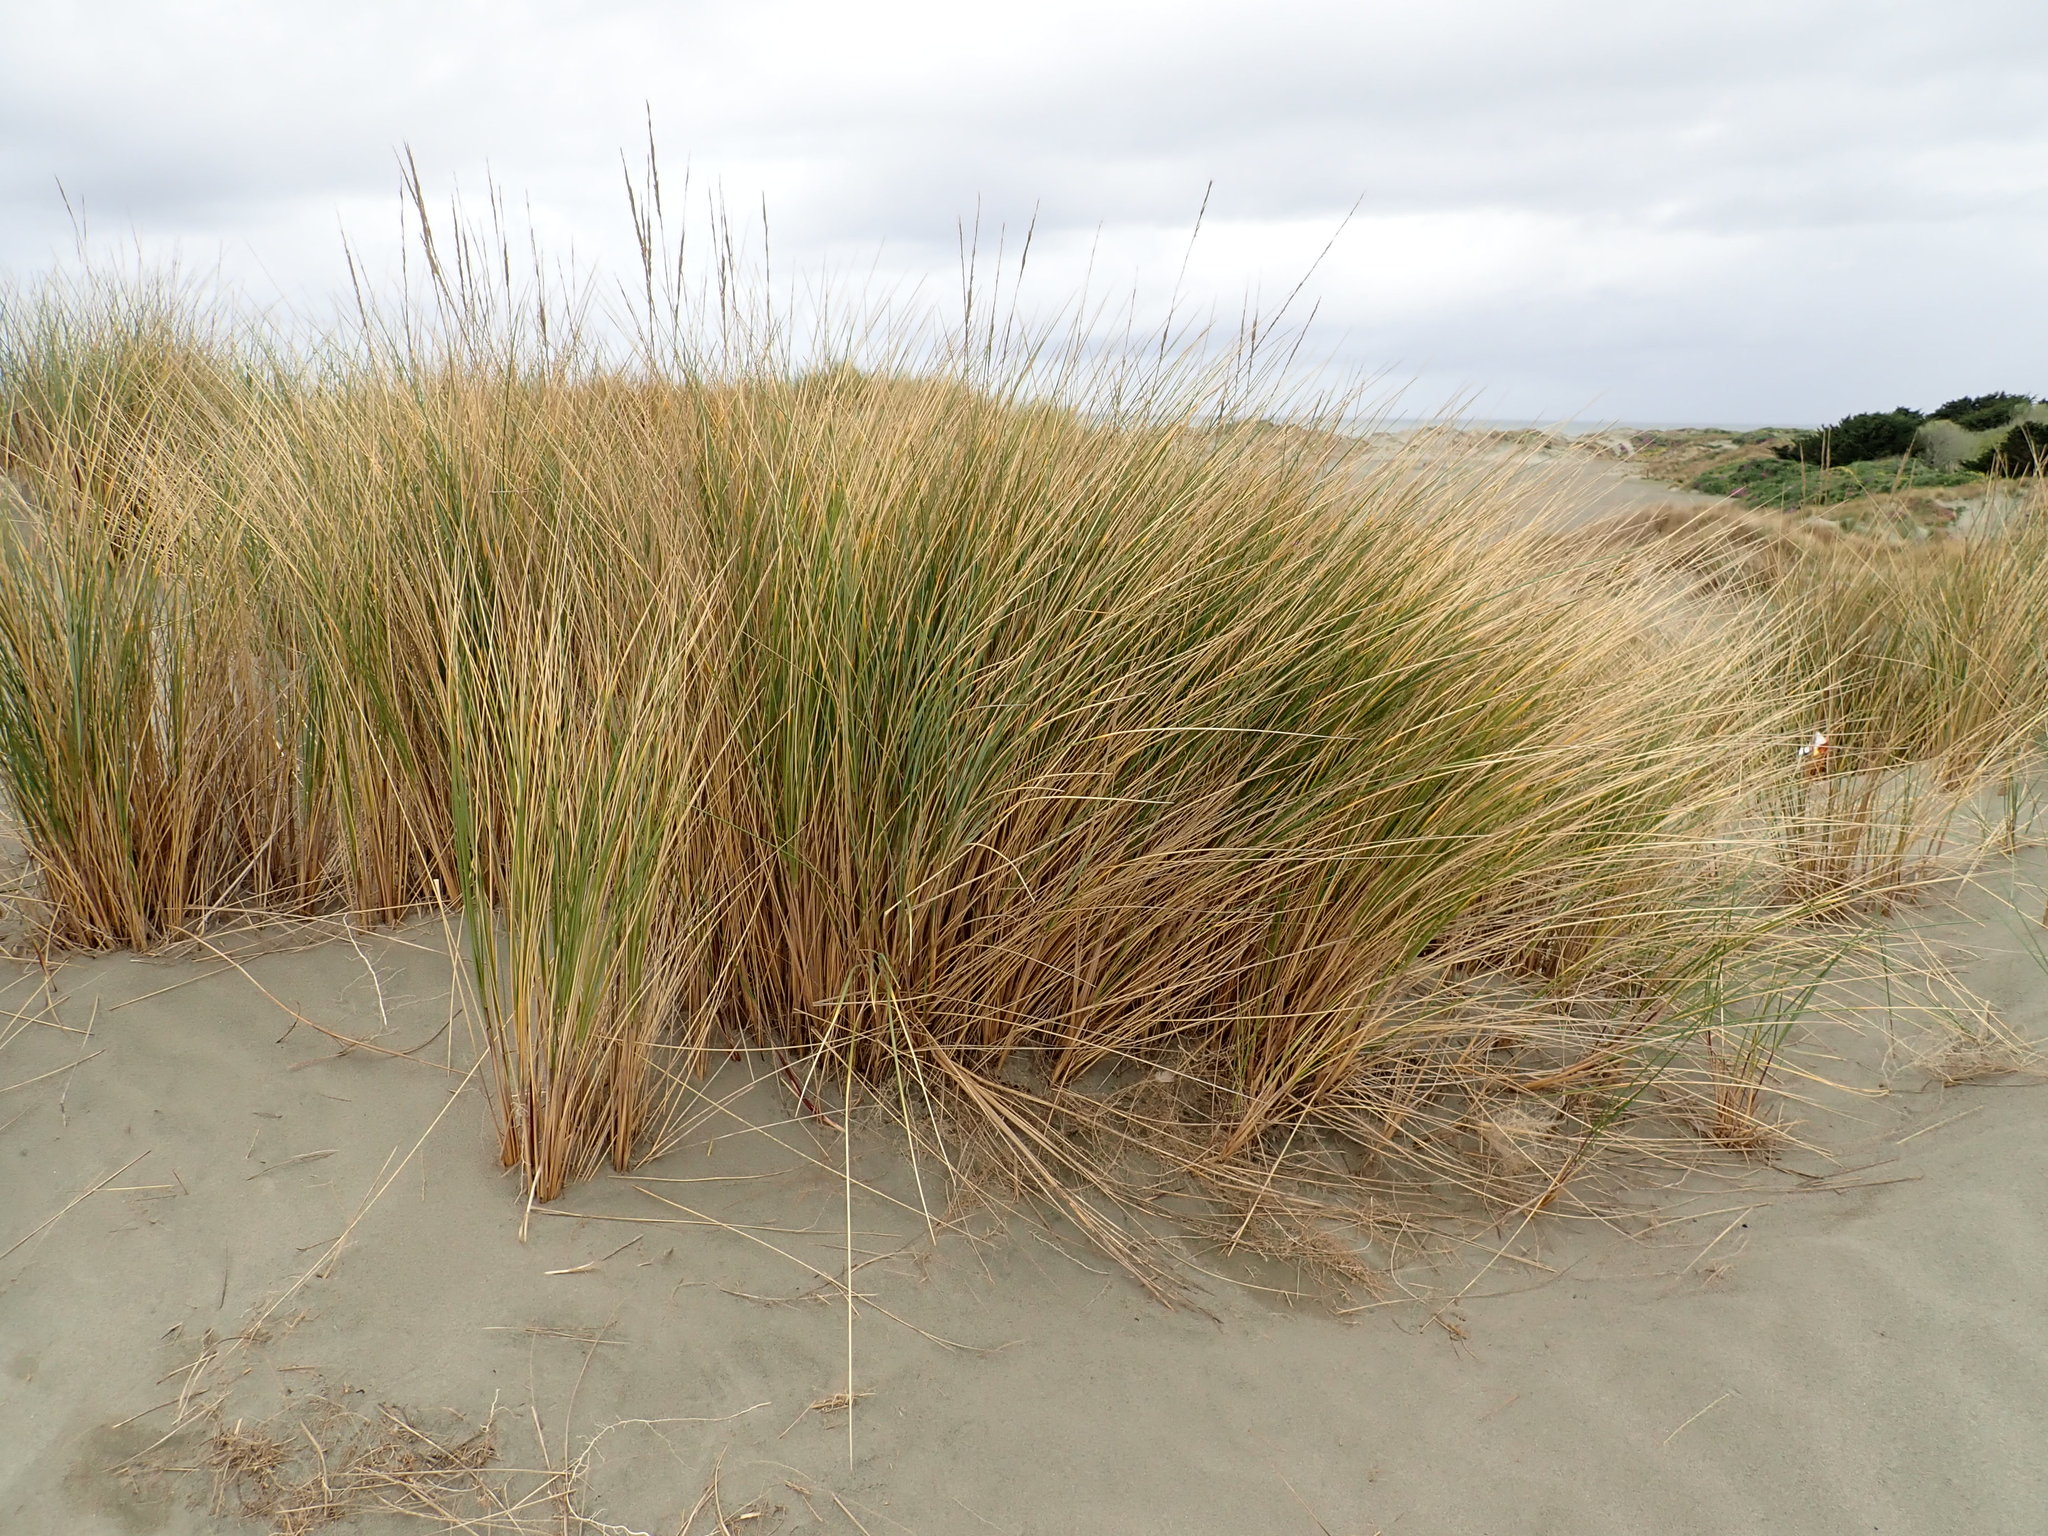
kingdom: Plantae
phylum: Tracheophyta
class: Liliopsida
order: Poales
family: Poaceae
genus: Calamagrostis
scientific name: Calamagrostis arenaria
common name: European beachgrass
